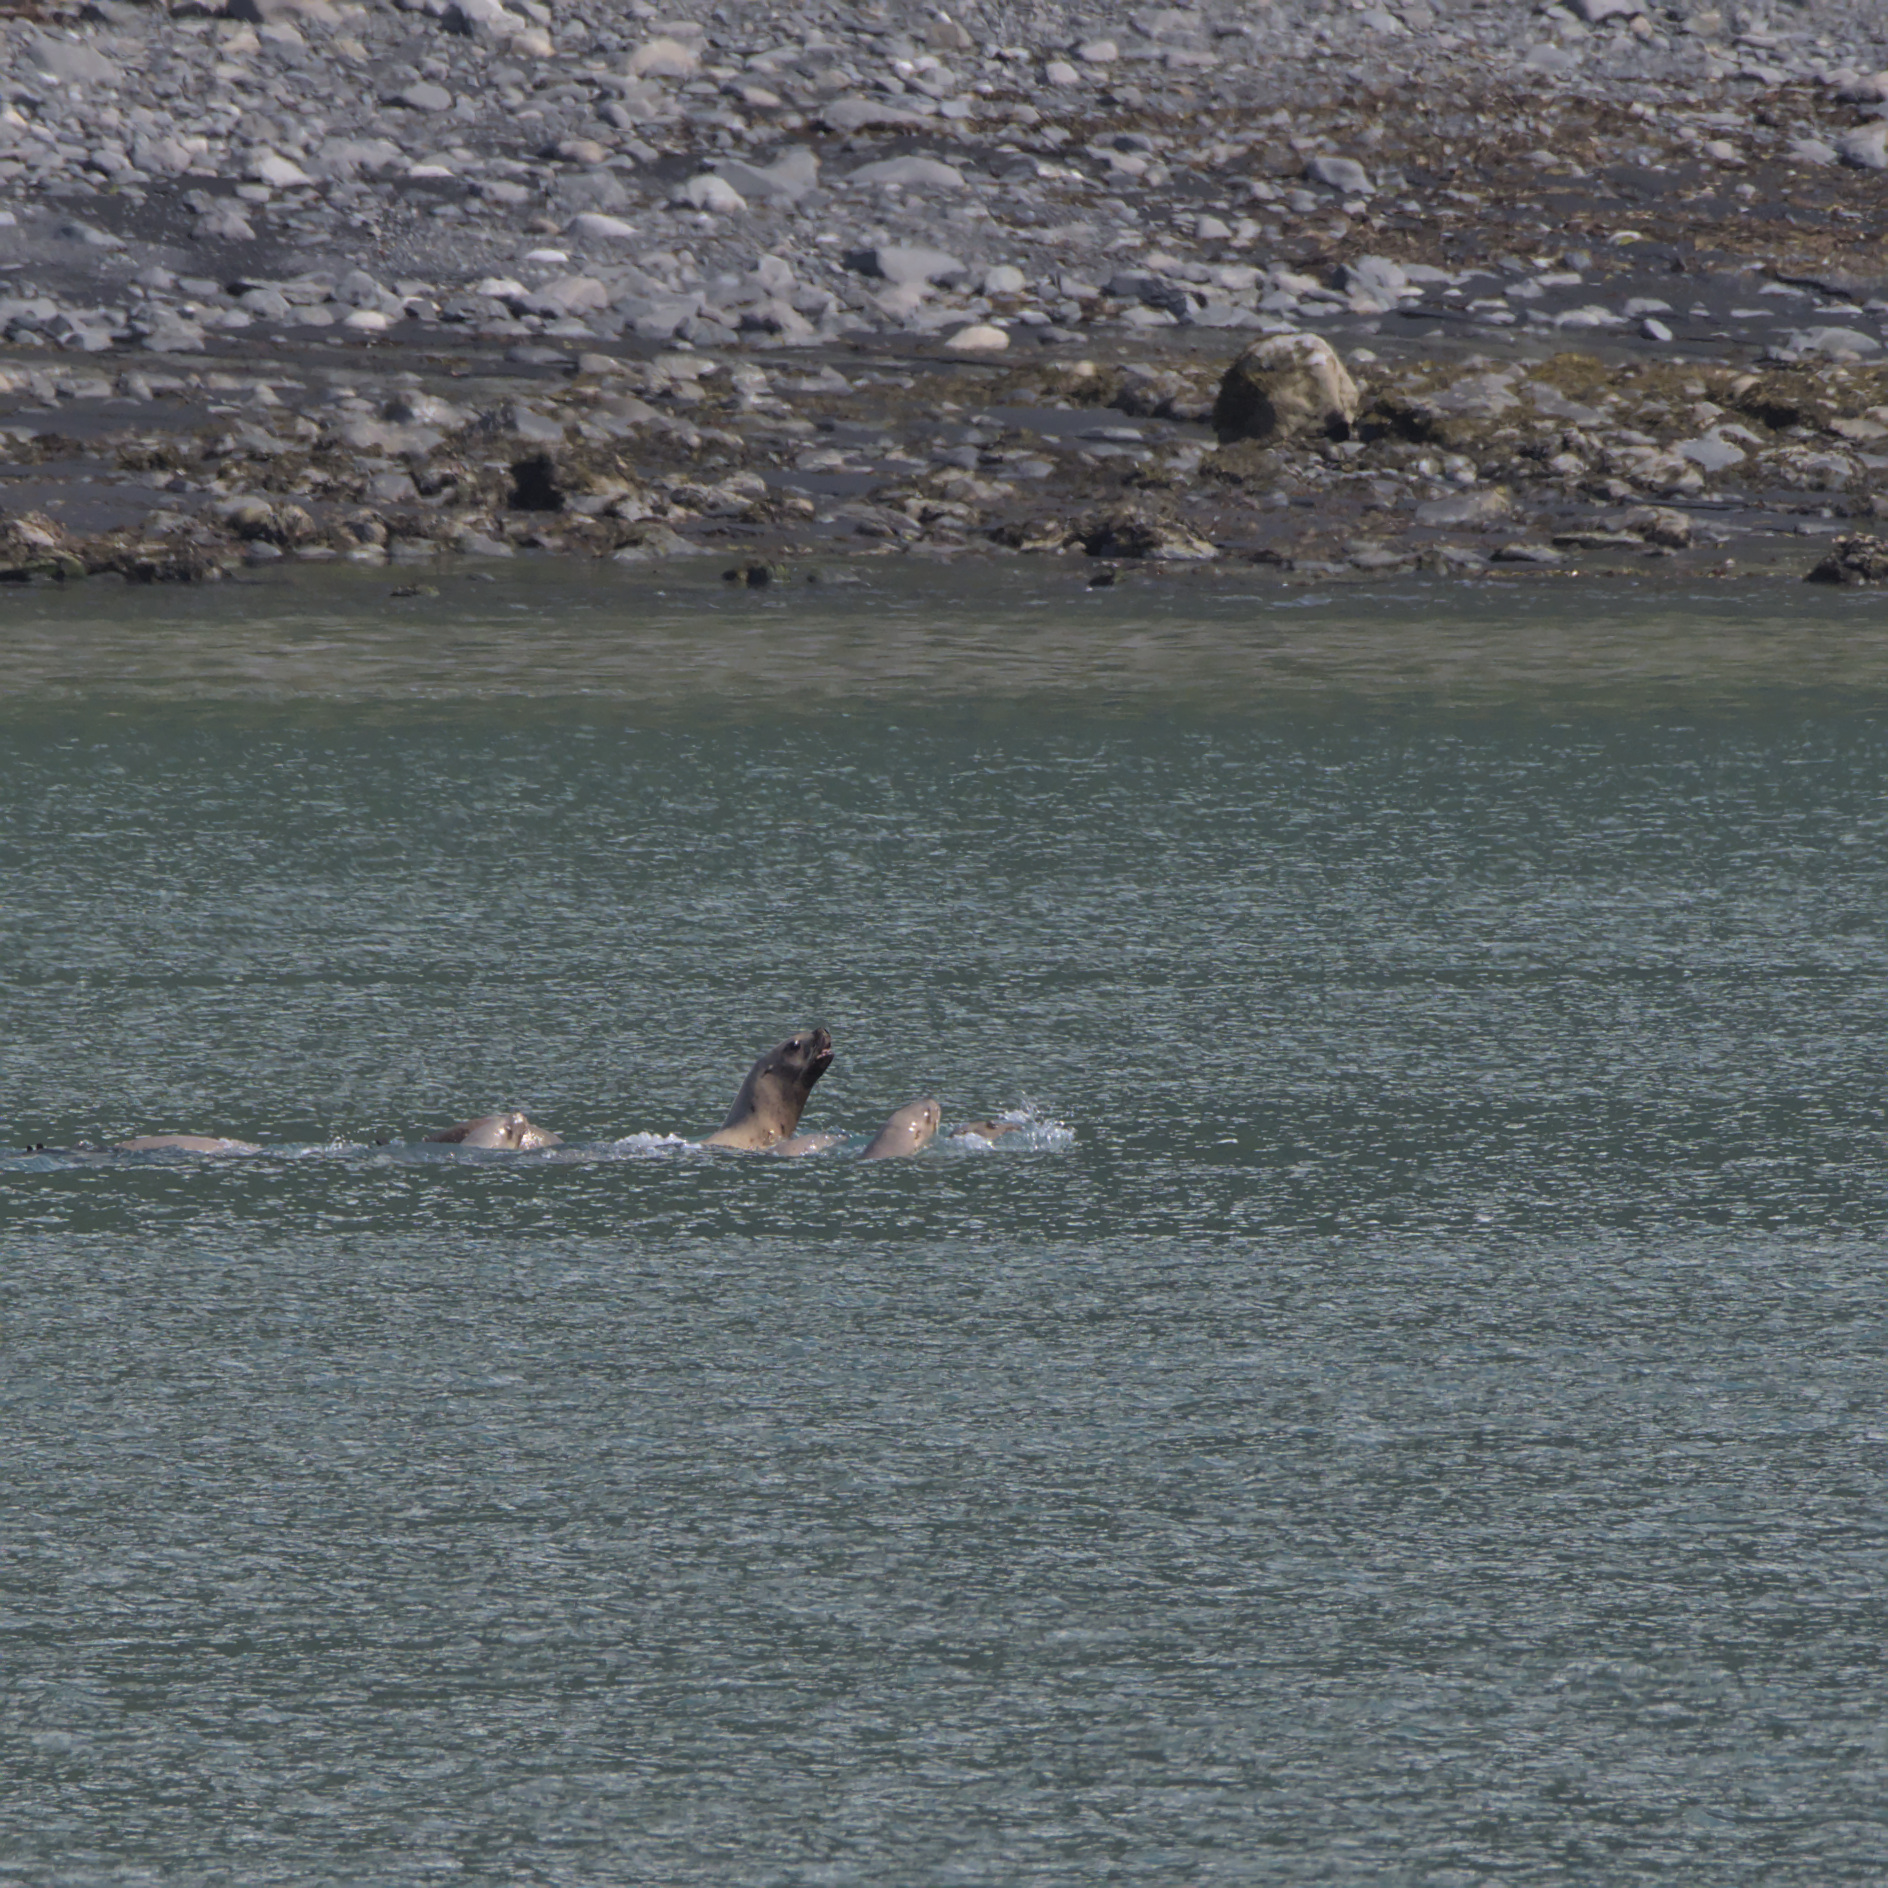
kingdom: Animalia
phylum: Chordata
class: Mammalia
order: Carnivora
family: Otariidae
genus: Eumetopias
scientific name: Eumetopias jubatus
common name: Steller sea lion
